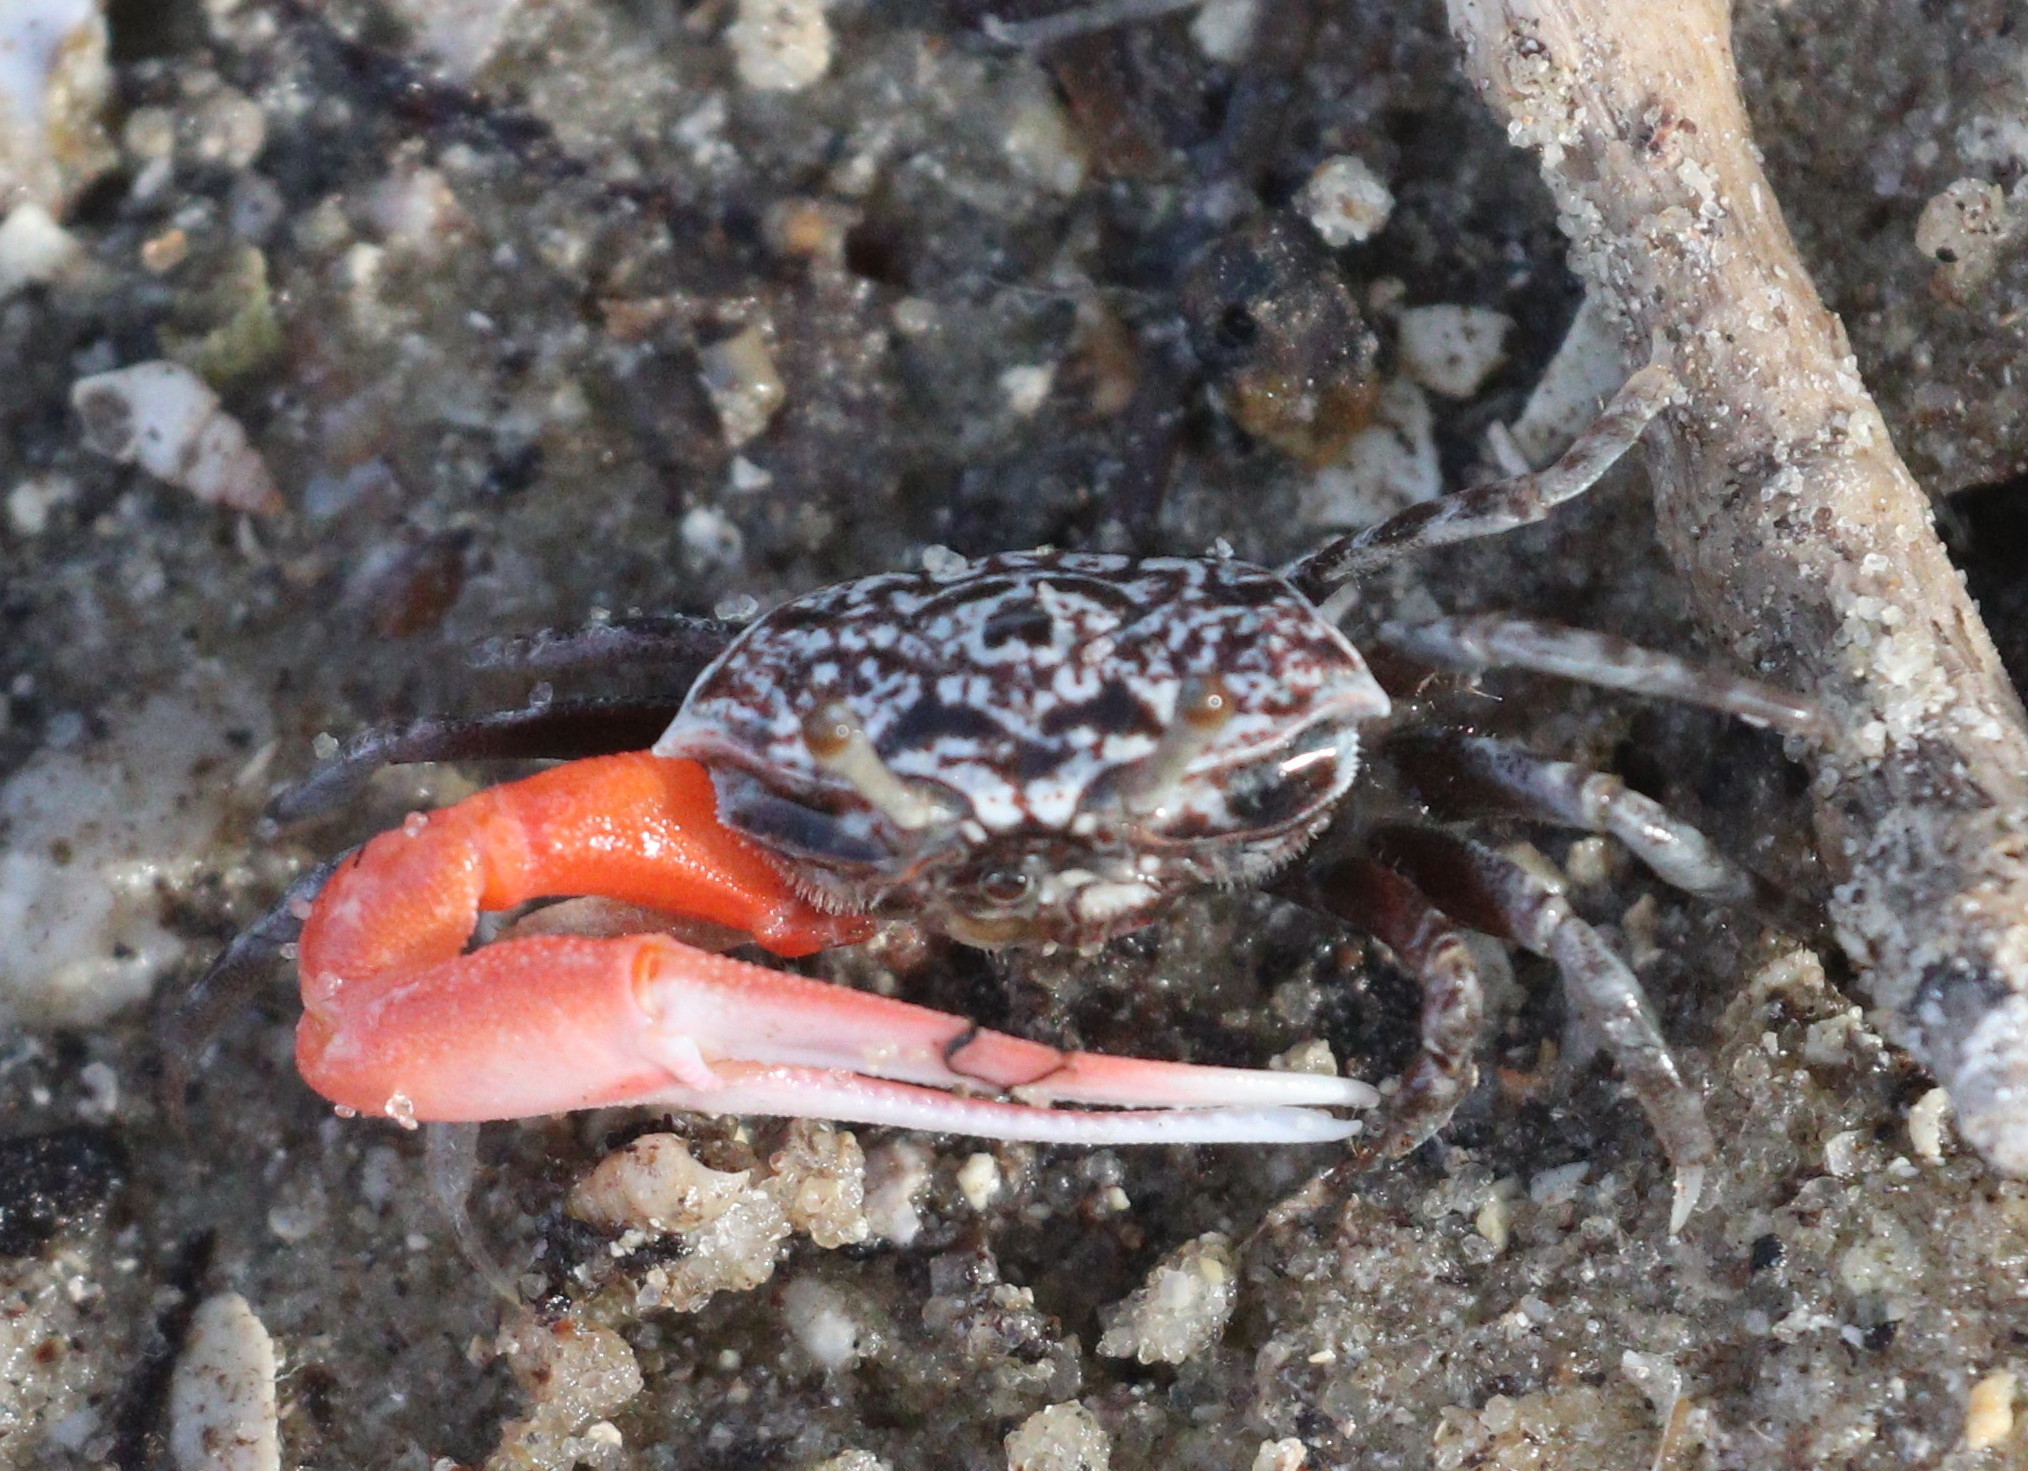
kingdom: Animalia
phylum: Arthropoda
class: Malacostraca
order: Decapoda
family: Ocypodidae
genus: Austruca
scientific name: Austruca occidentalis
